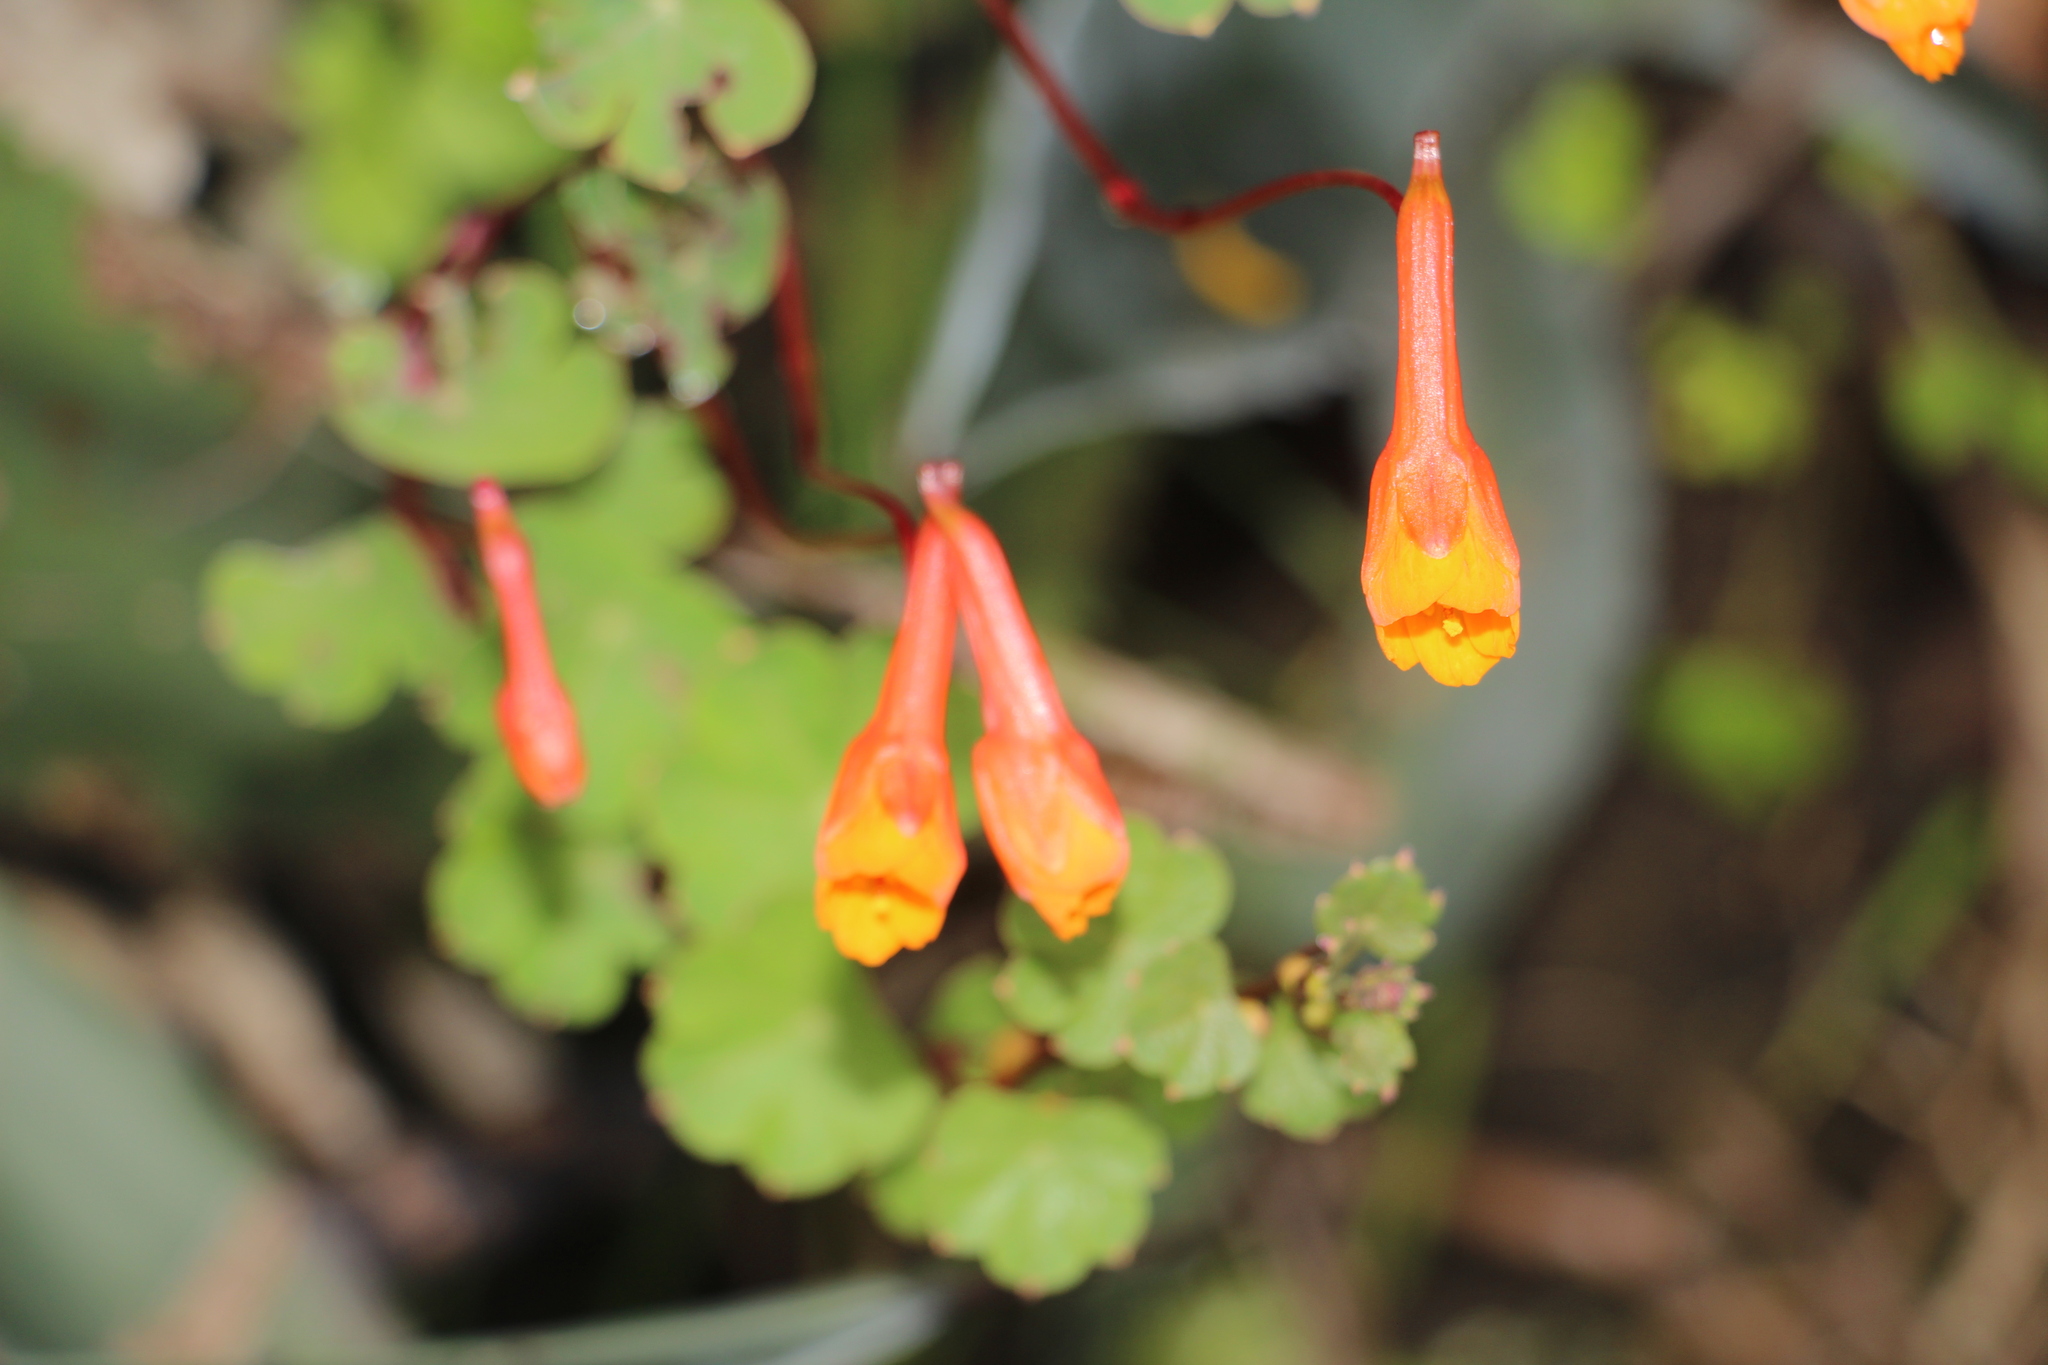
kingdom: Plantae
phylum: Tracheophyta
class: Magnoliopsida
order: Brassicales
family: Tropaeolaceae
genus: Tropaeolum
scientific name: Tropaeolum tuberosum
